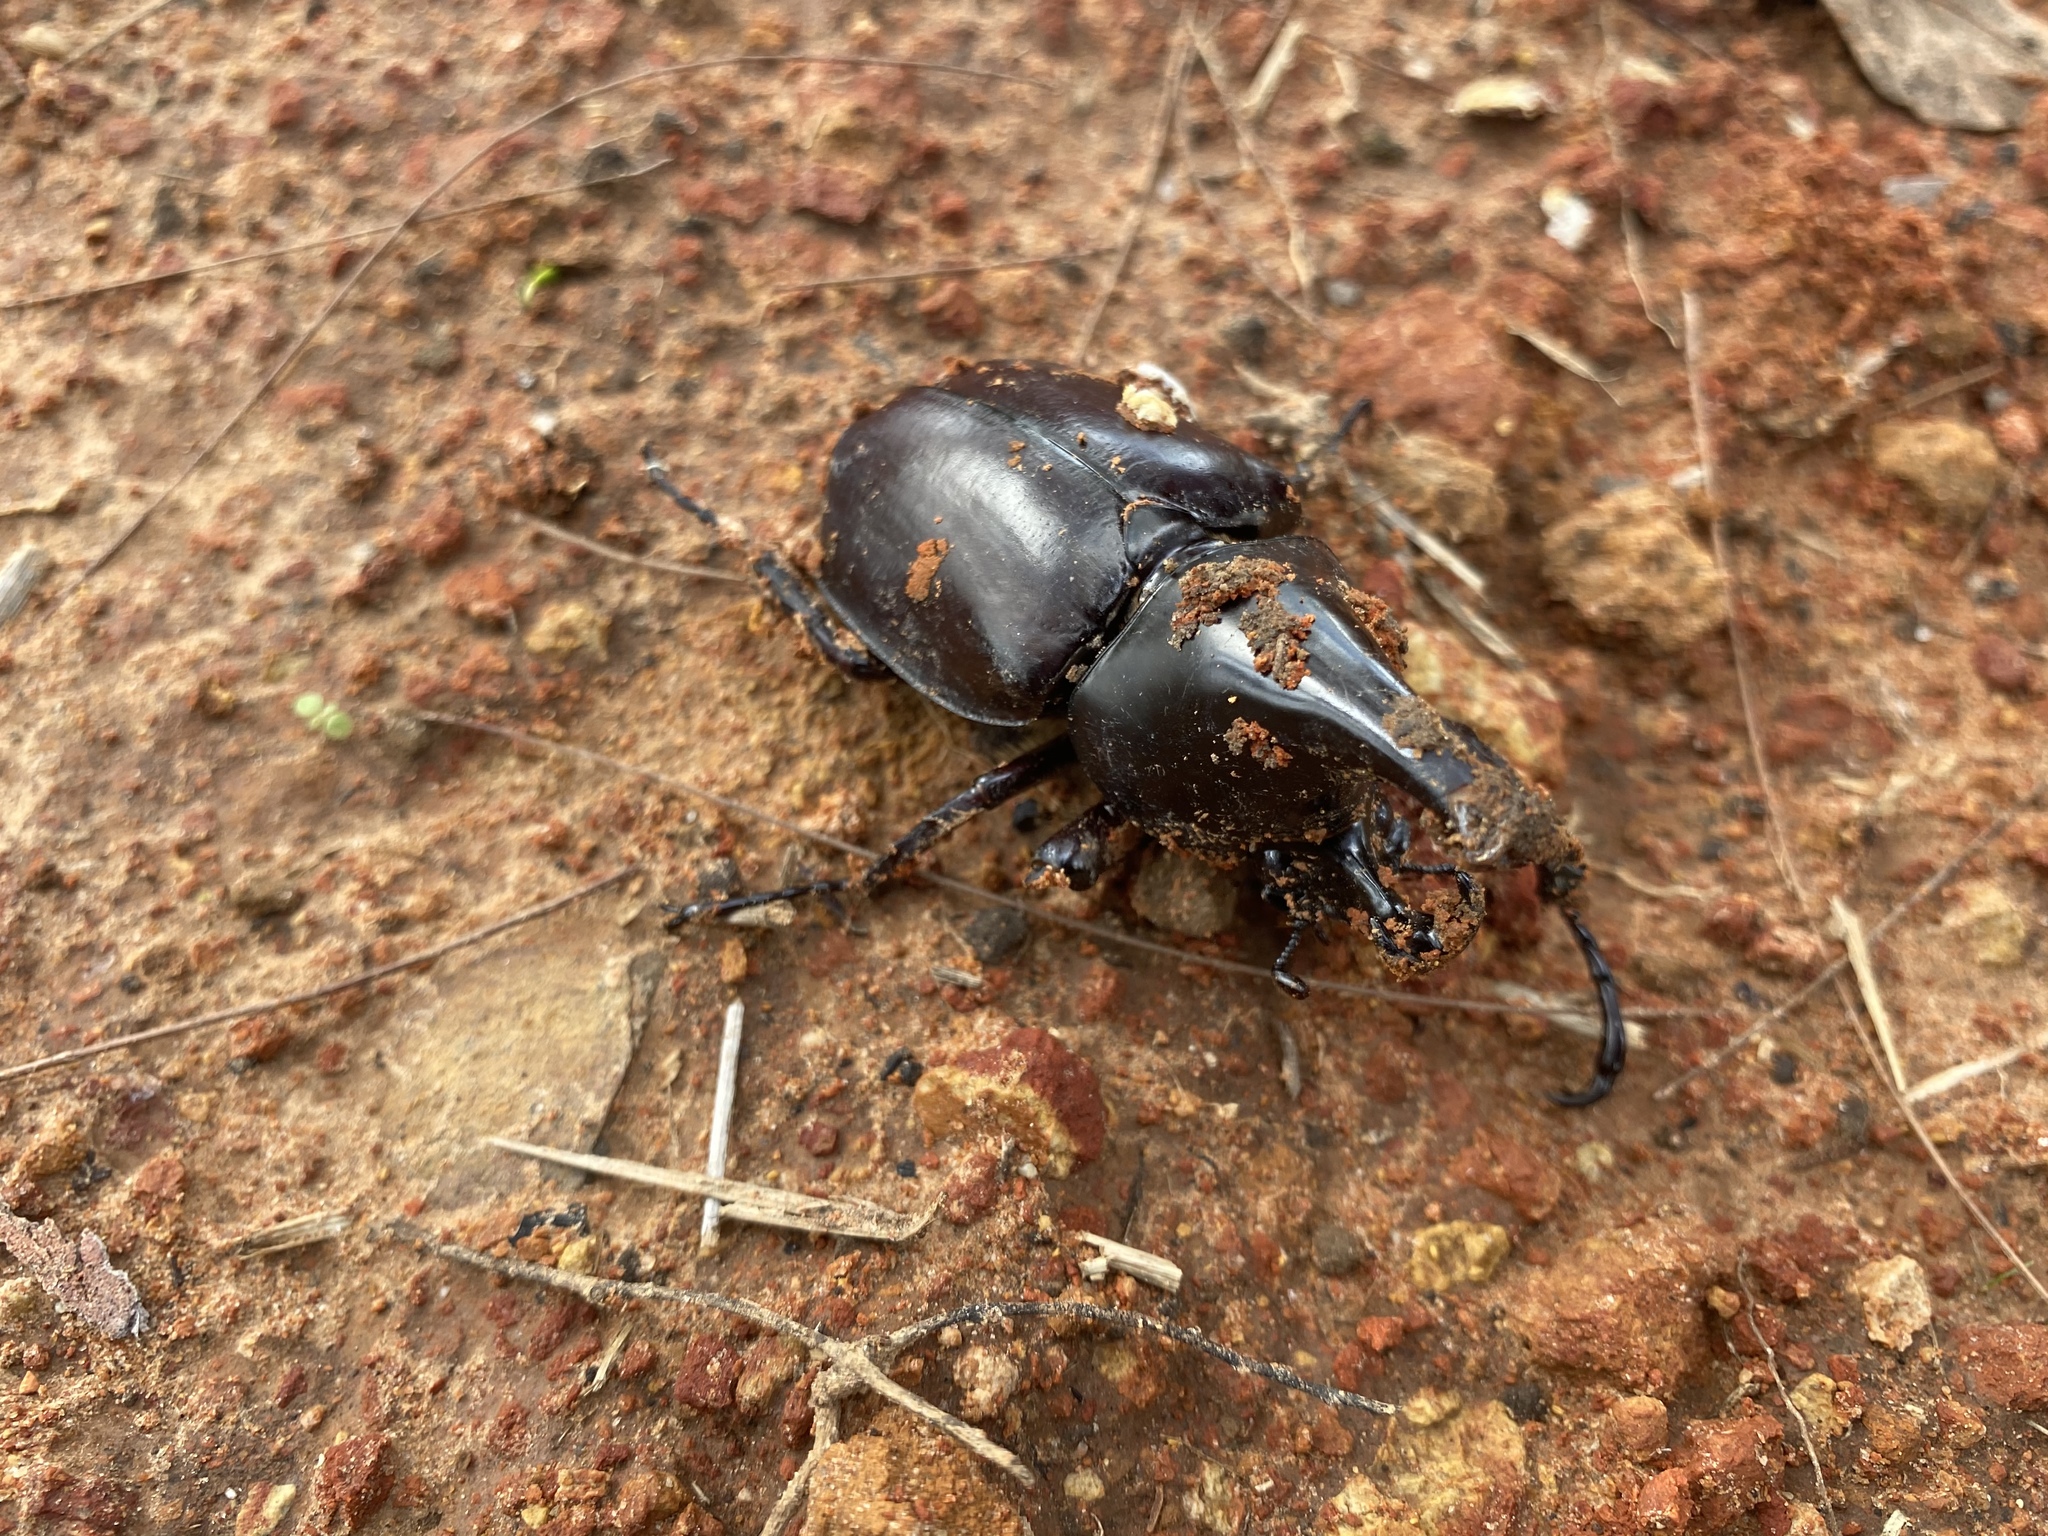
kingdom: Animalia
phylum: Arthropoda
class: Insecta
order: Coleoptera
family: Scarabaeidae
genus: Xylotrupes
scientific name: Xylotrupes australicus
